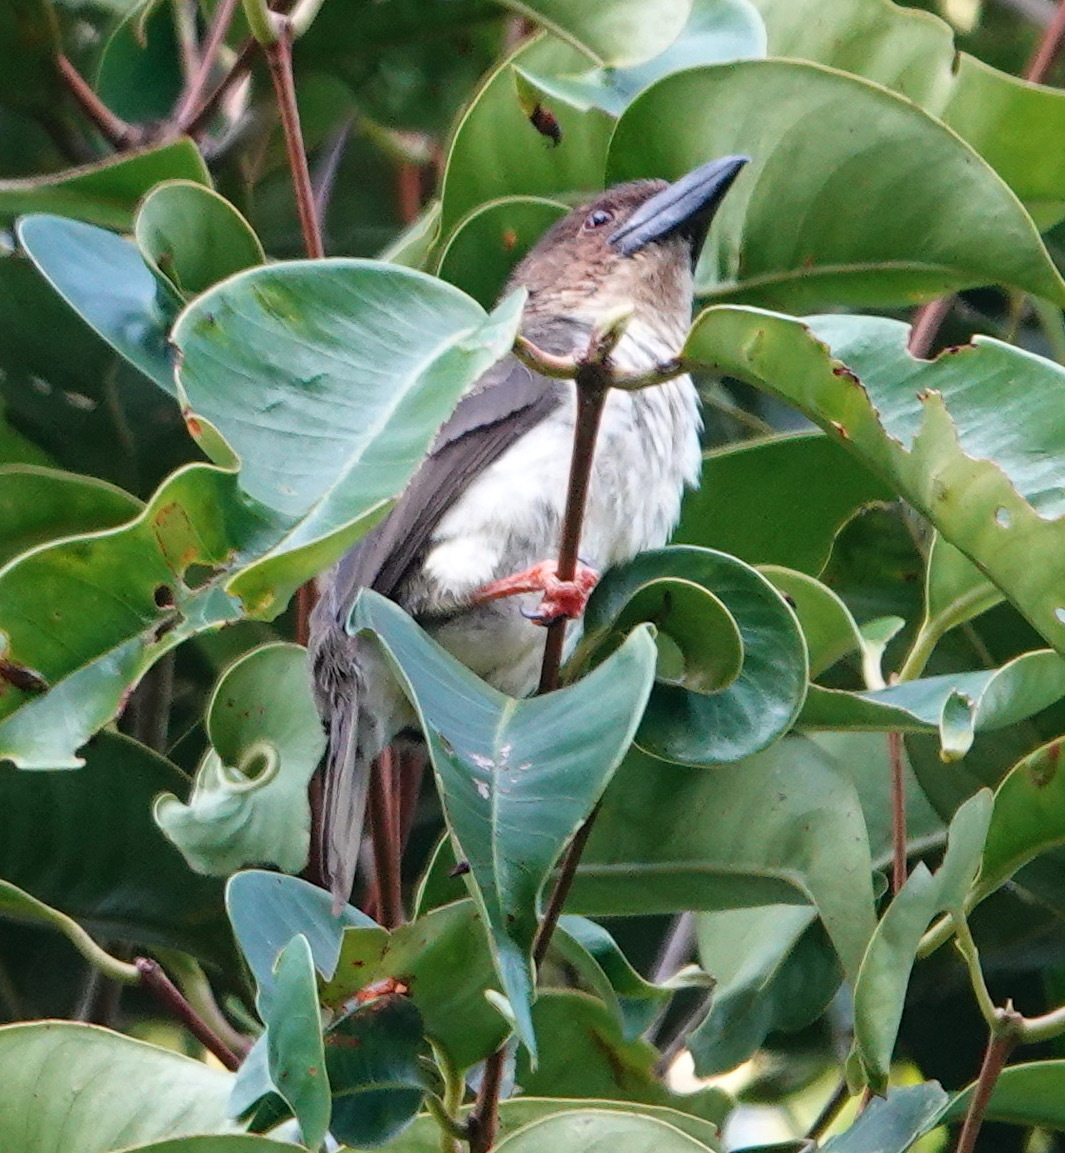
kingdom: Animalia
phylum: Chordata
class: Aves
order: Piciformes
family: Megalaimidae
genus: Caloramphus
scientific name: Caloramphus hayii
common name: Sooty barbet
